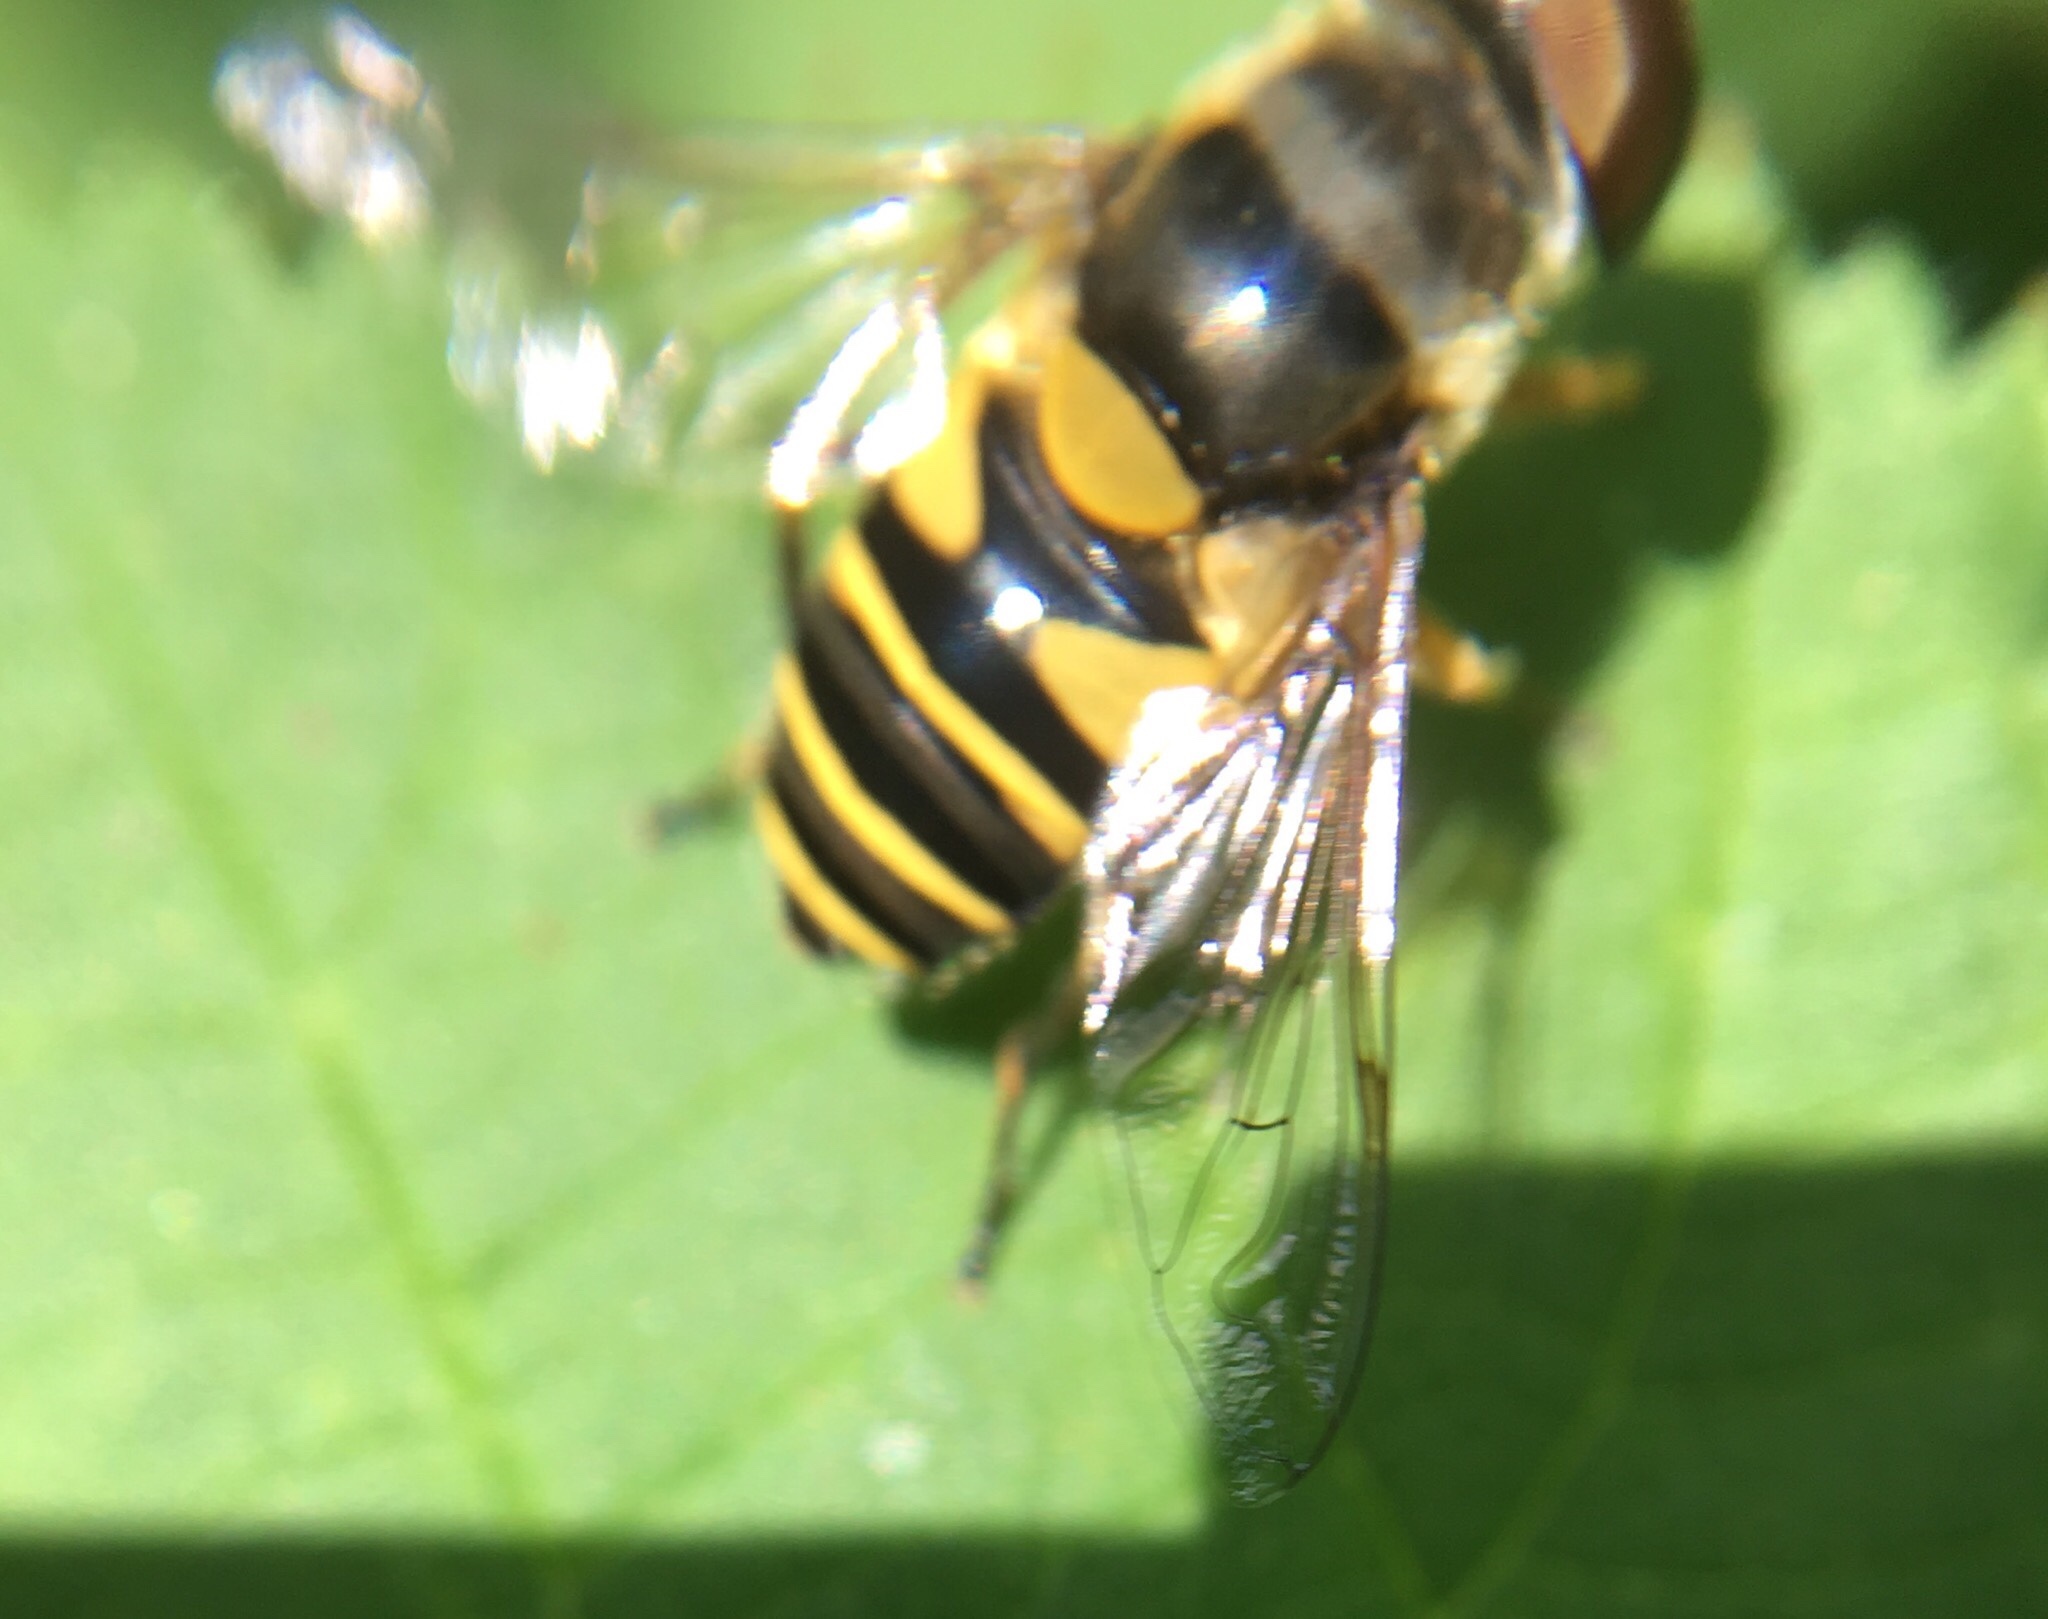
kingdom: Animalia
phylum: Arthropoda
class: Insecta
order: Diptera
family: Syrphidae
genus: Eristalis
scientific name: Eristalis transversa
